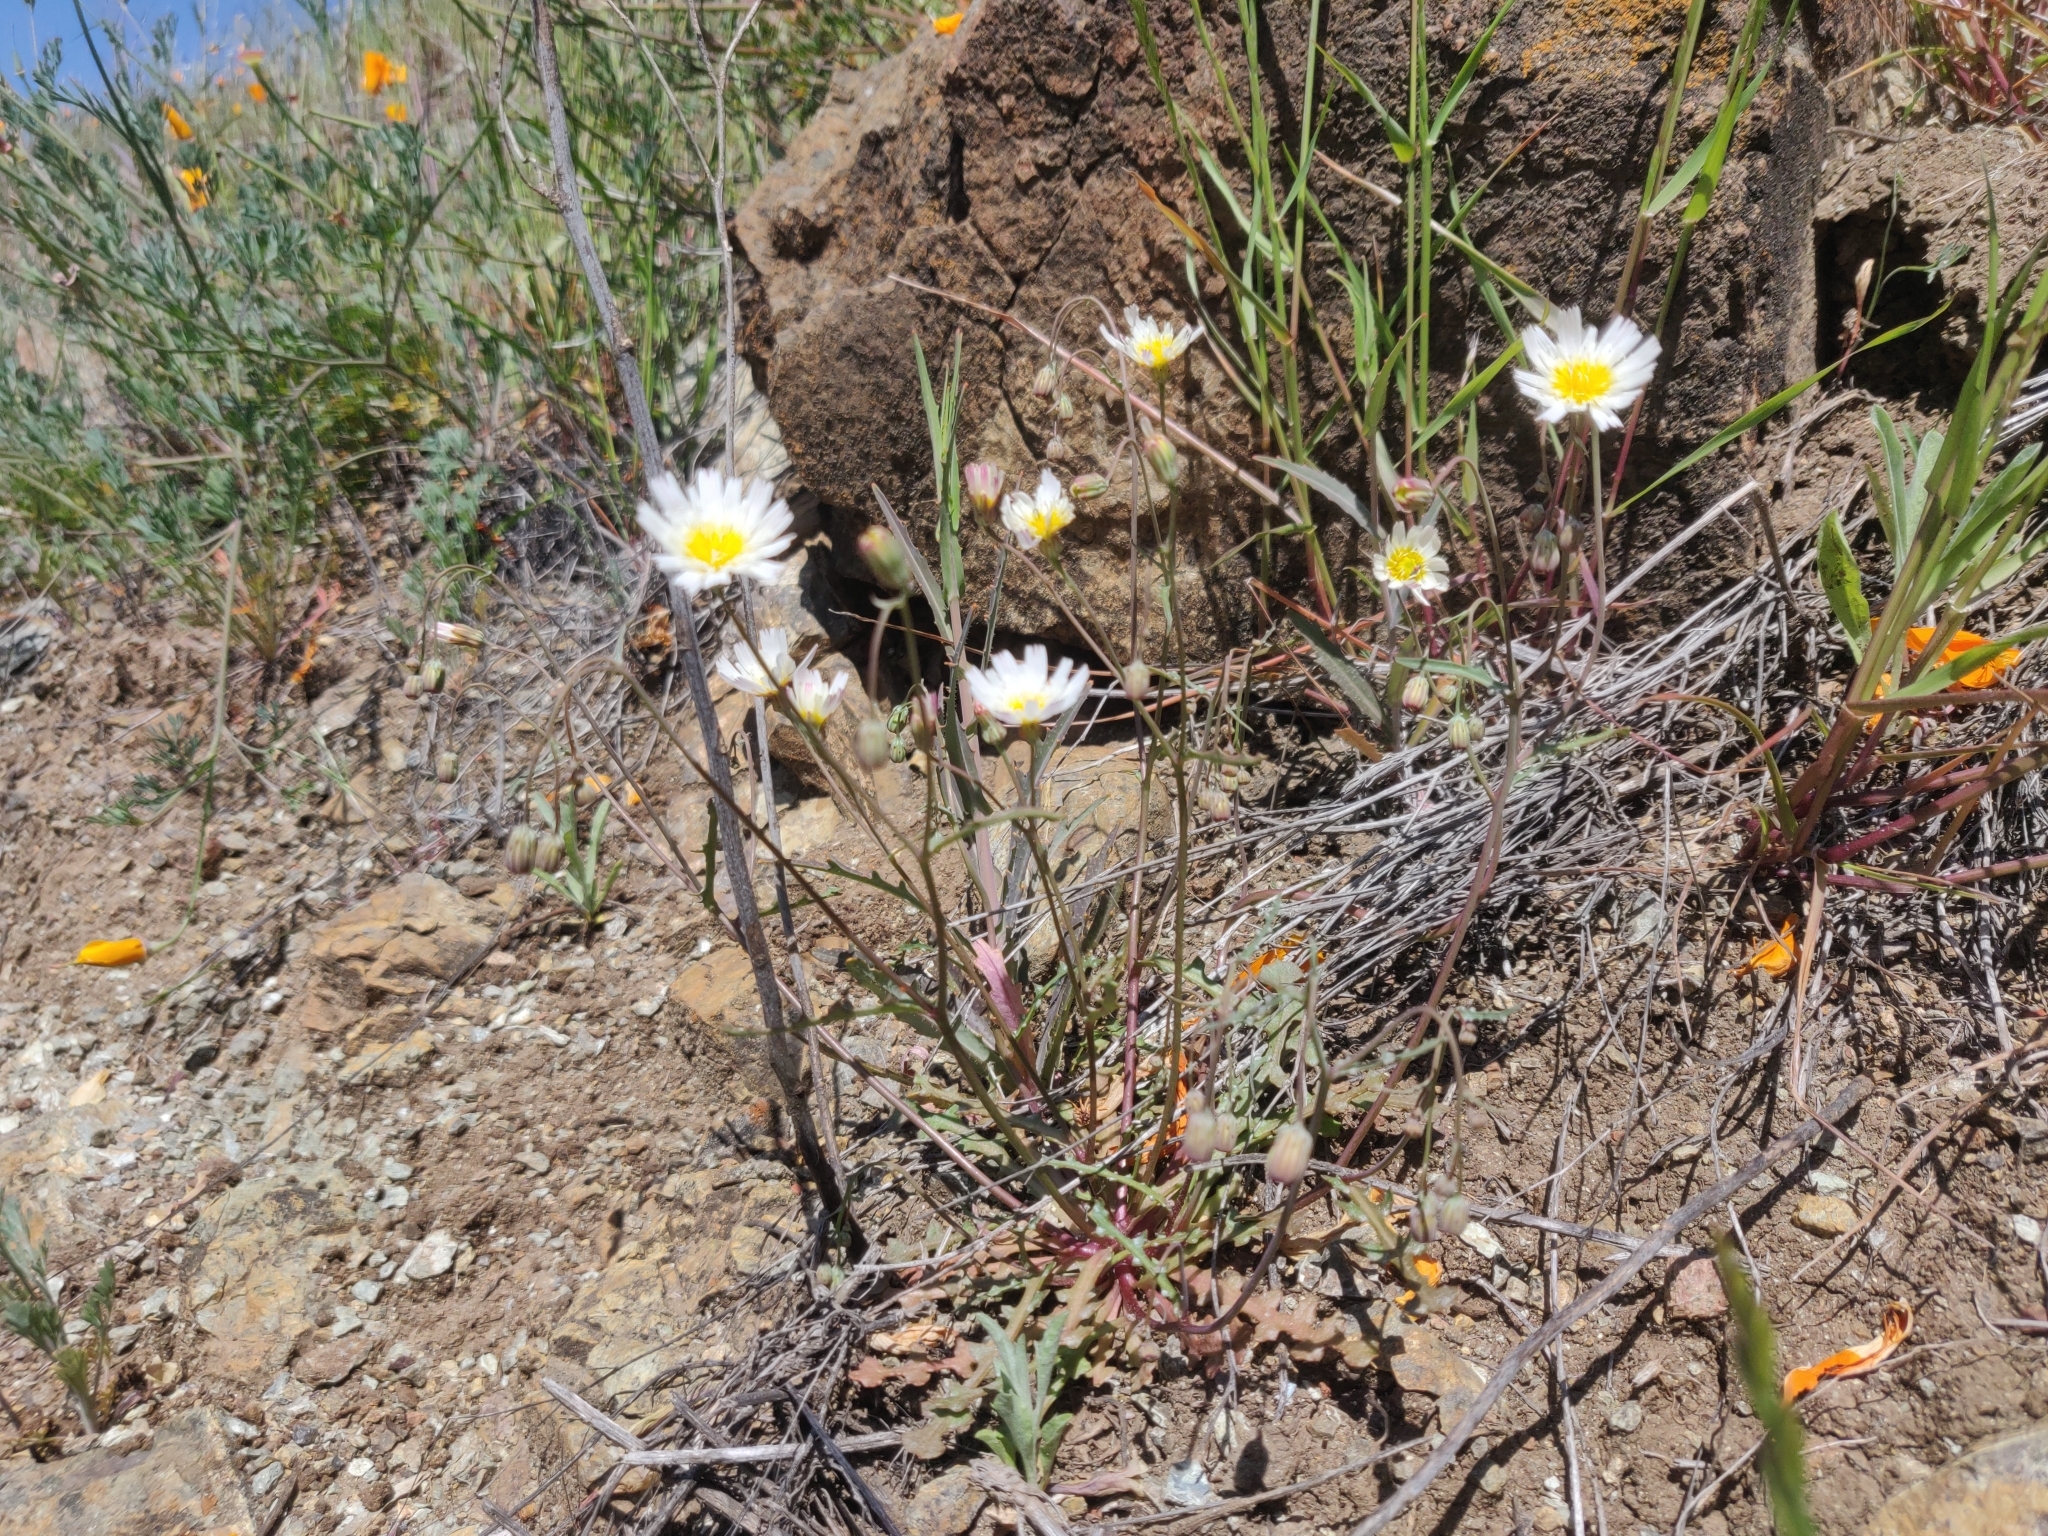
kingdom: Plantae
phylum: Tracheophyta
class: Magnoliopsida
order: Asterales
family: Asteraceae
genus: Malacothrix
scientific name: Malacothrix floccifera
